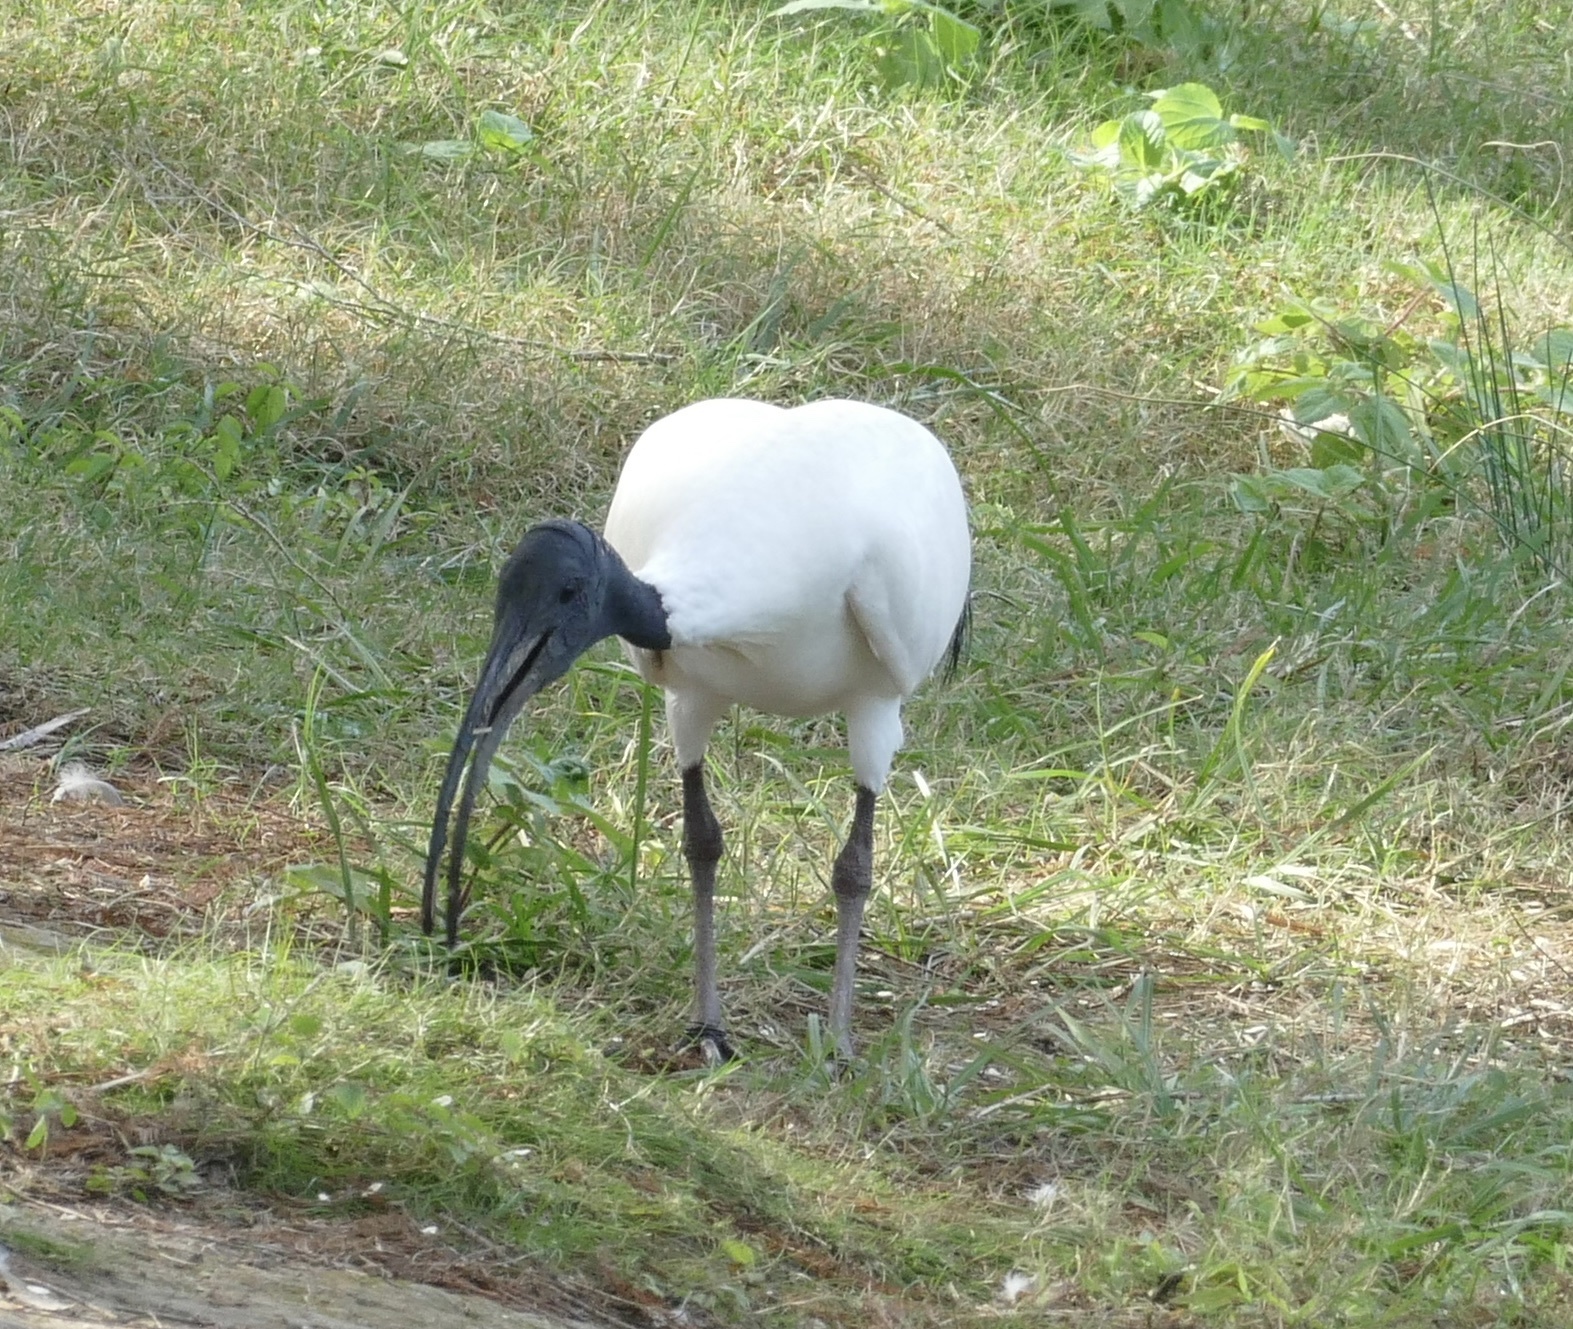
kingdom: Animalia
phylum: Chordata
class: Aves
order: Pelecaniformes
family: Threskiornithidae
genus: Threskiornis
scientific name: Threskiornis molucca
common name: Australian white ibis
